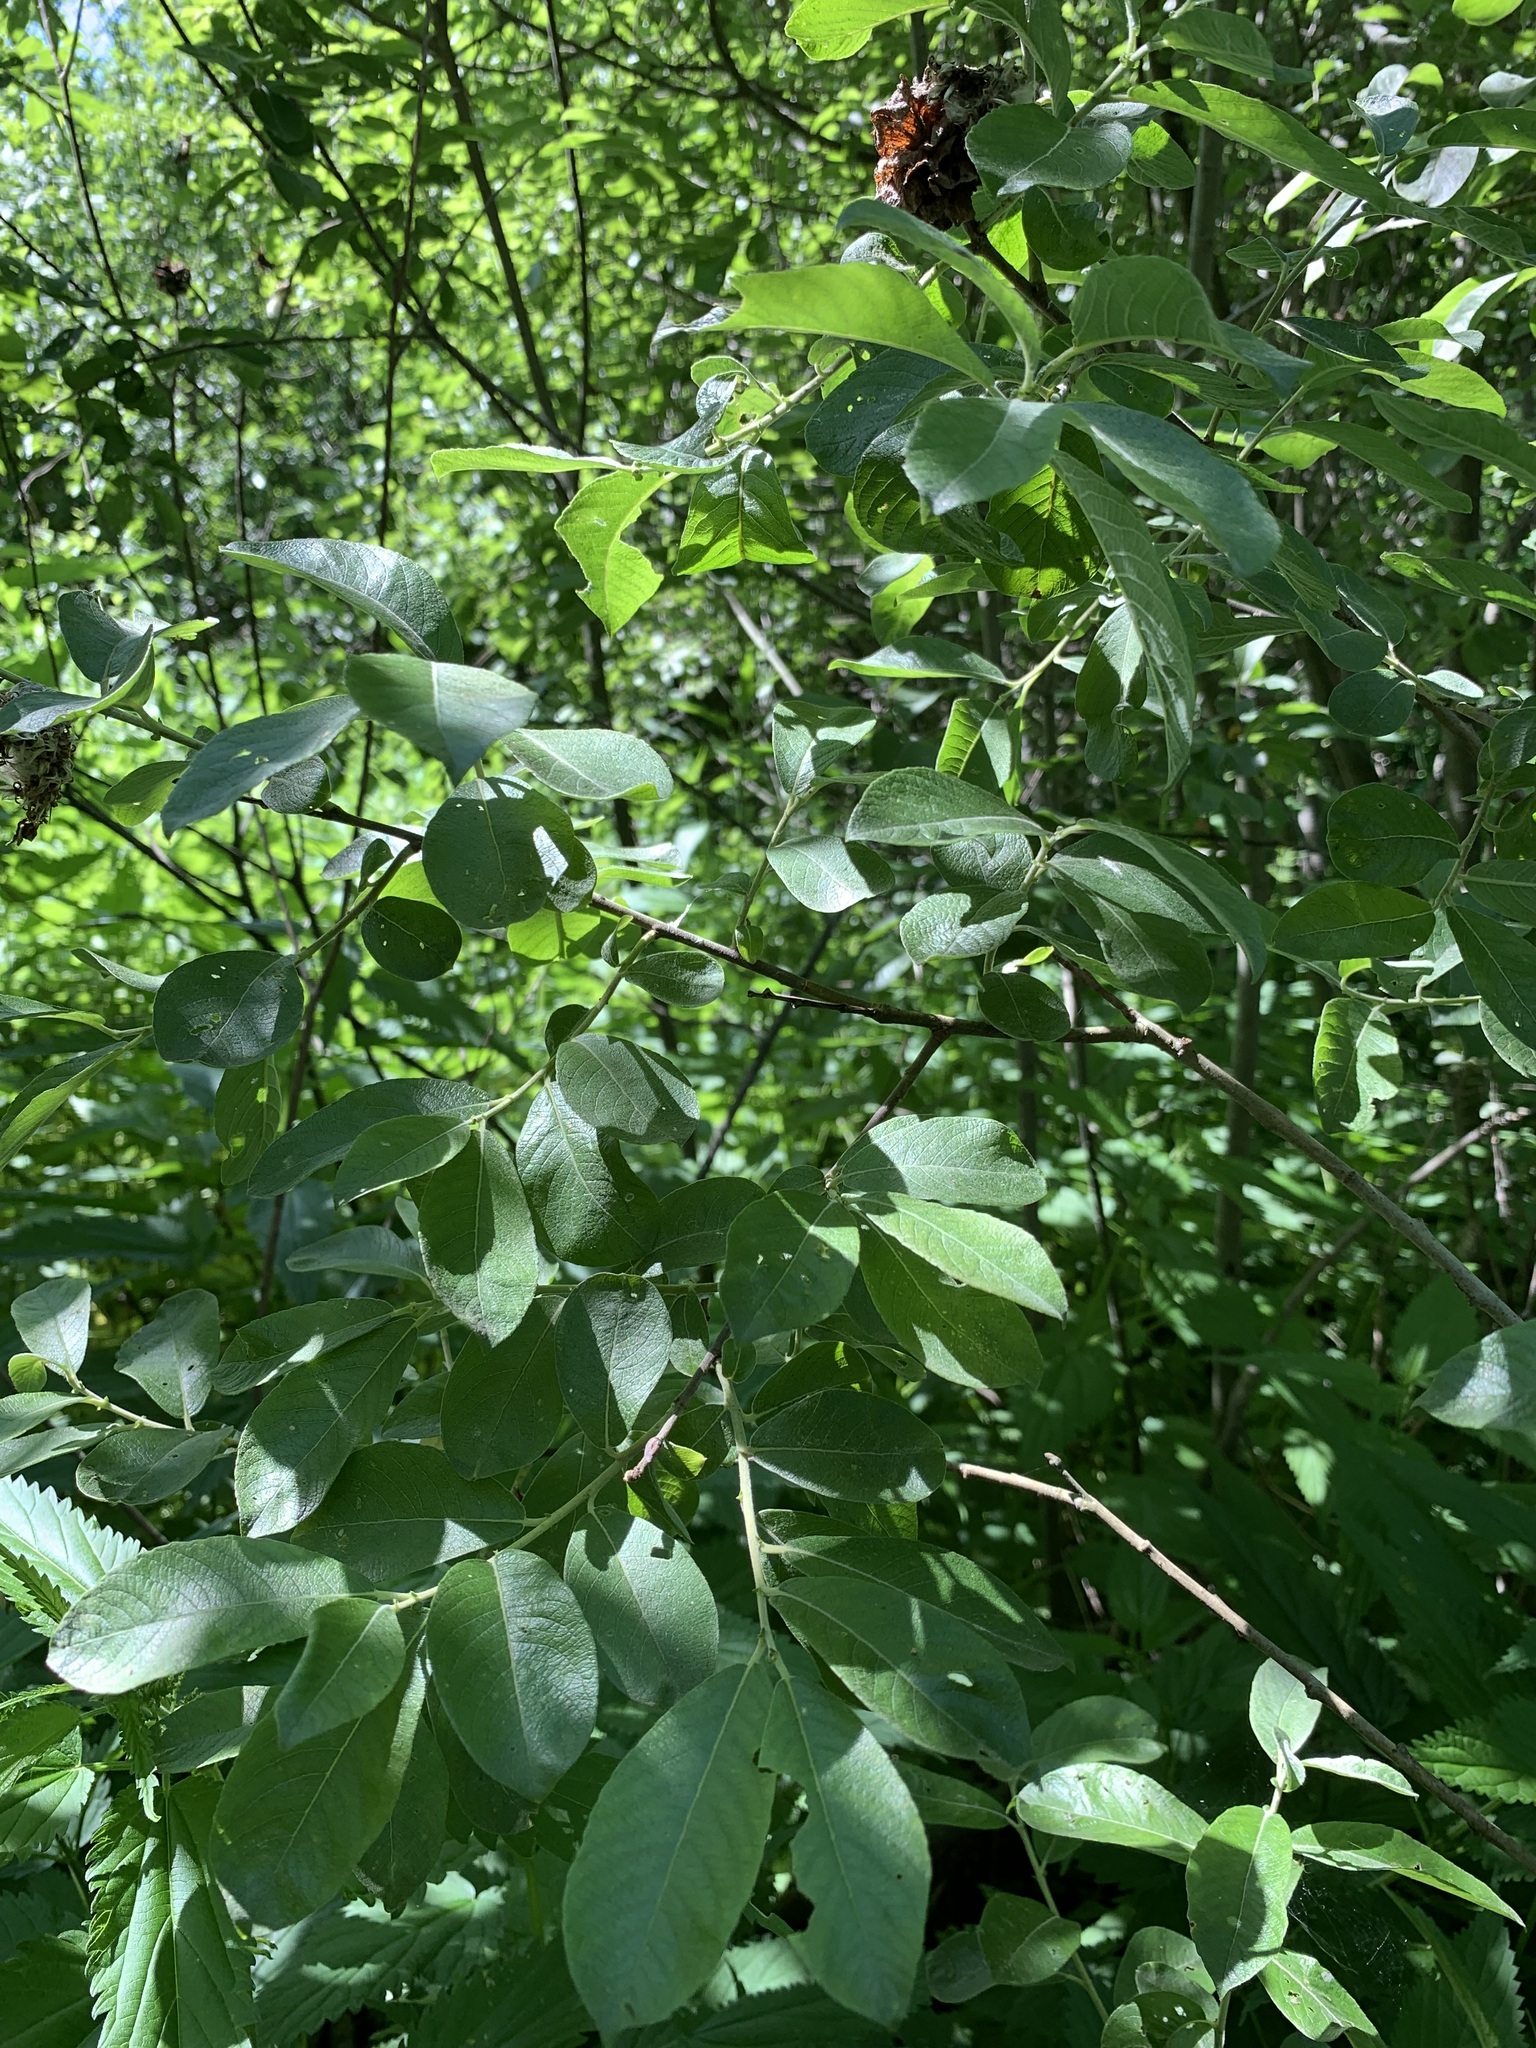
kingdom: Plantae
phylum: Tracheophyta
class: Magnoliopsida
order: Malpighiales
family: Salicaceae
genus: Salix
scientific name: Salix caprea
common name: Goat willow
